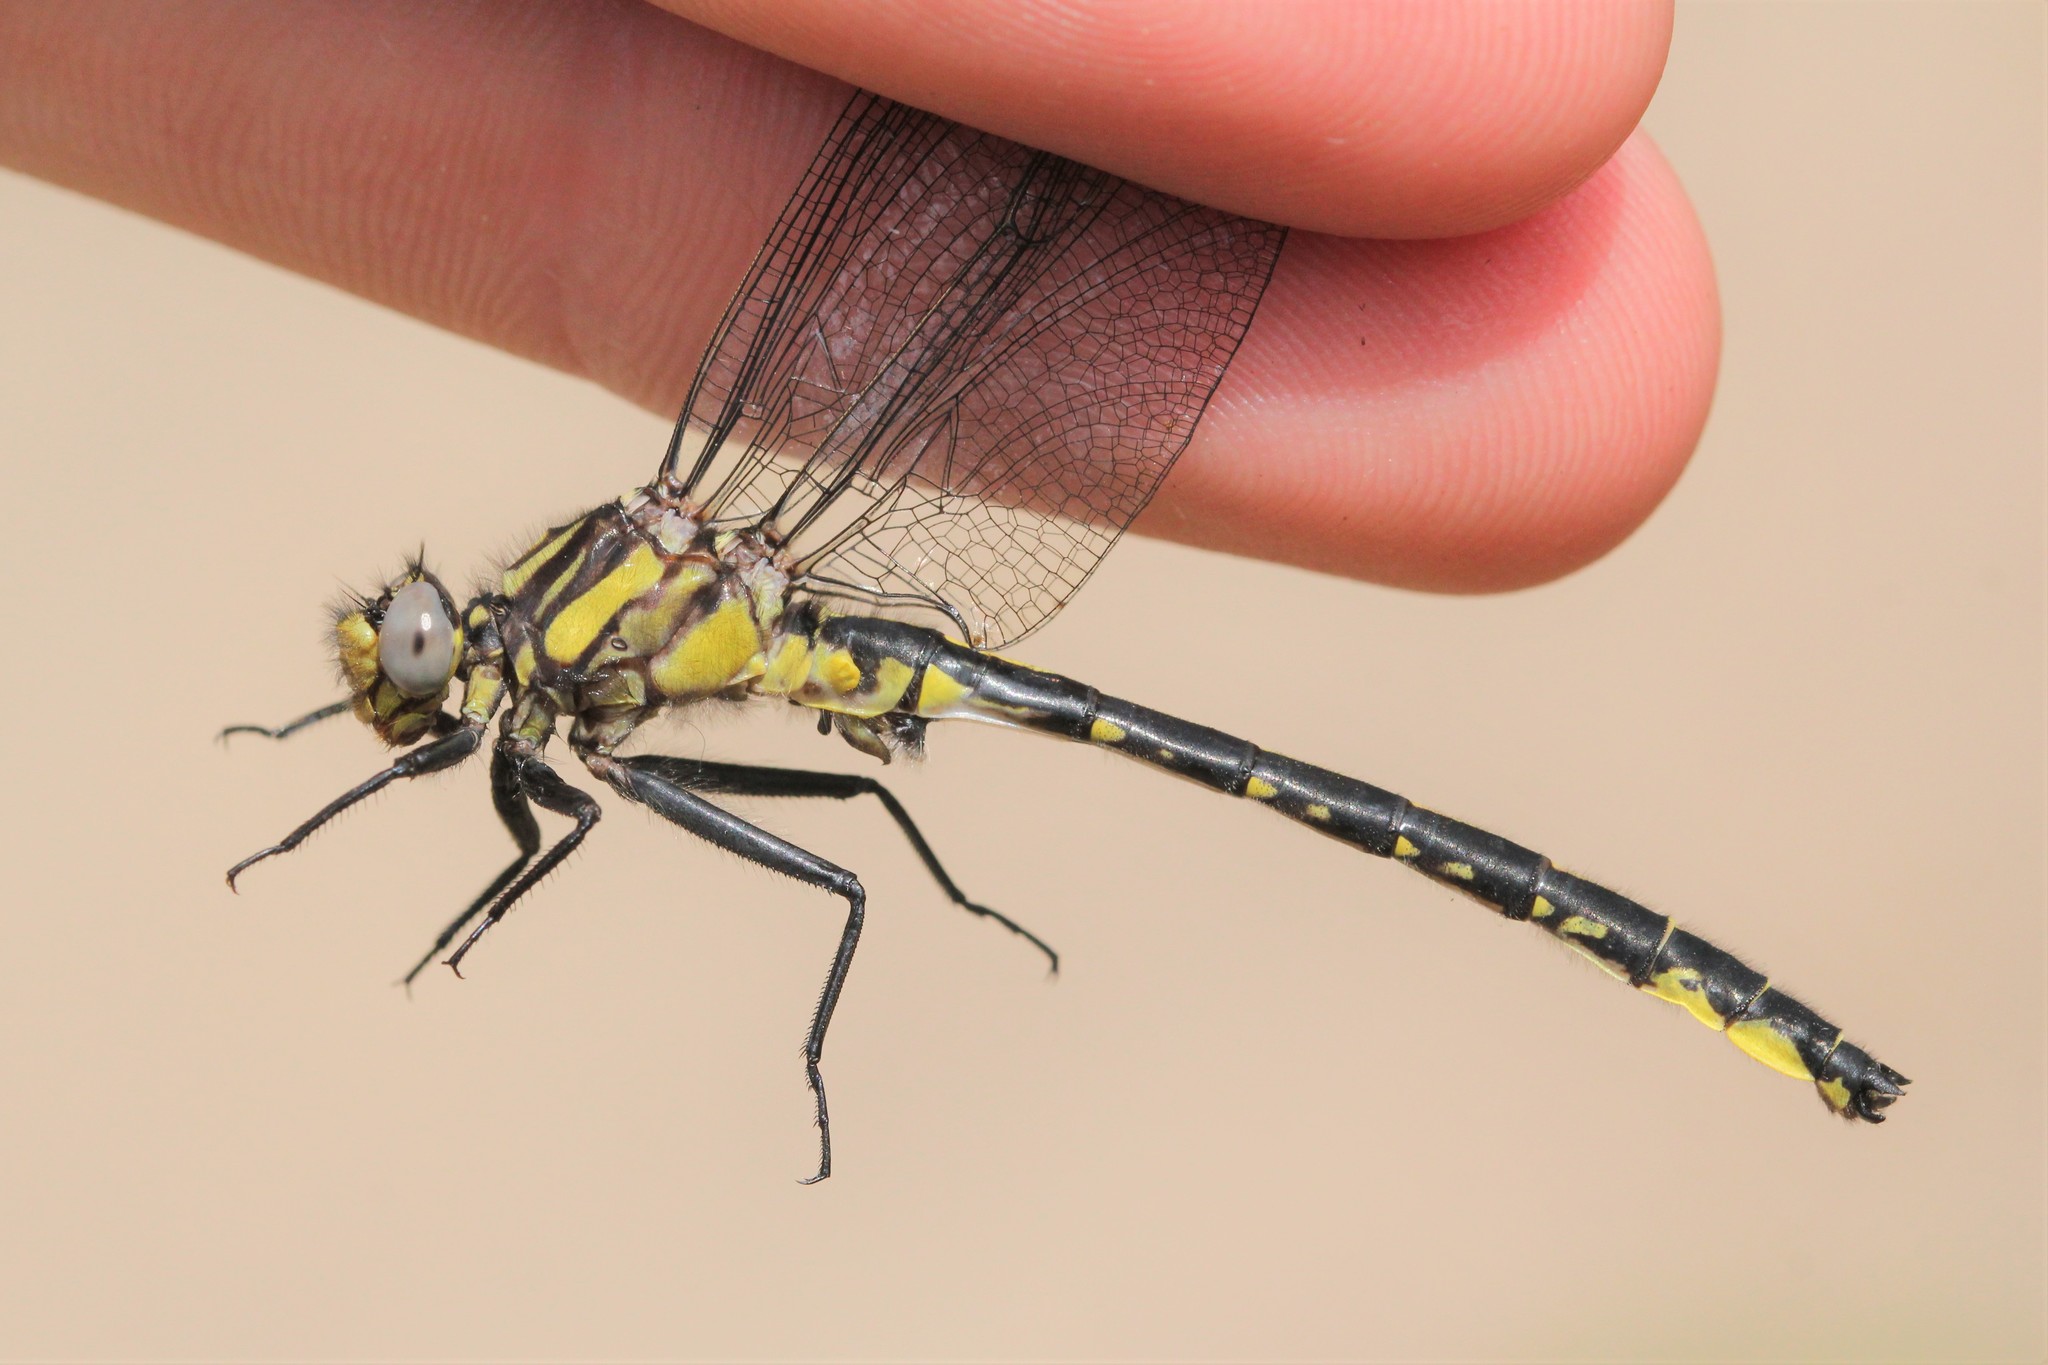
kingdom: Animalia
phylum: Arthropoda
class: Insecta
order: Odonata
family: Gomphidae
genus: Phanogomphus
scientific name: Phanogomphus borealis
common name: Beaverpond clubtail
